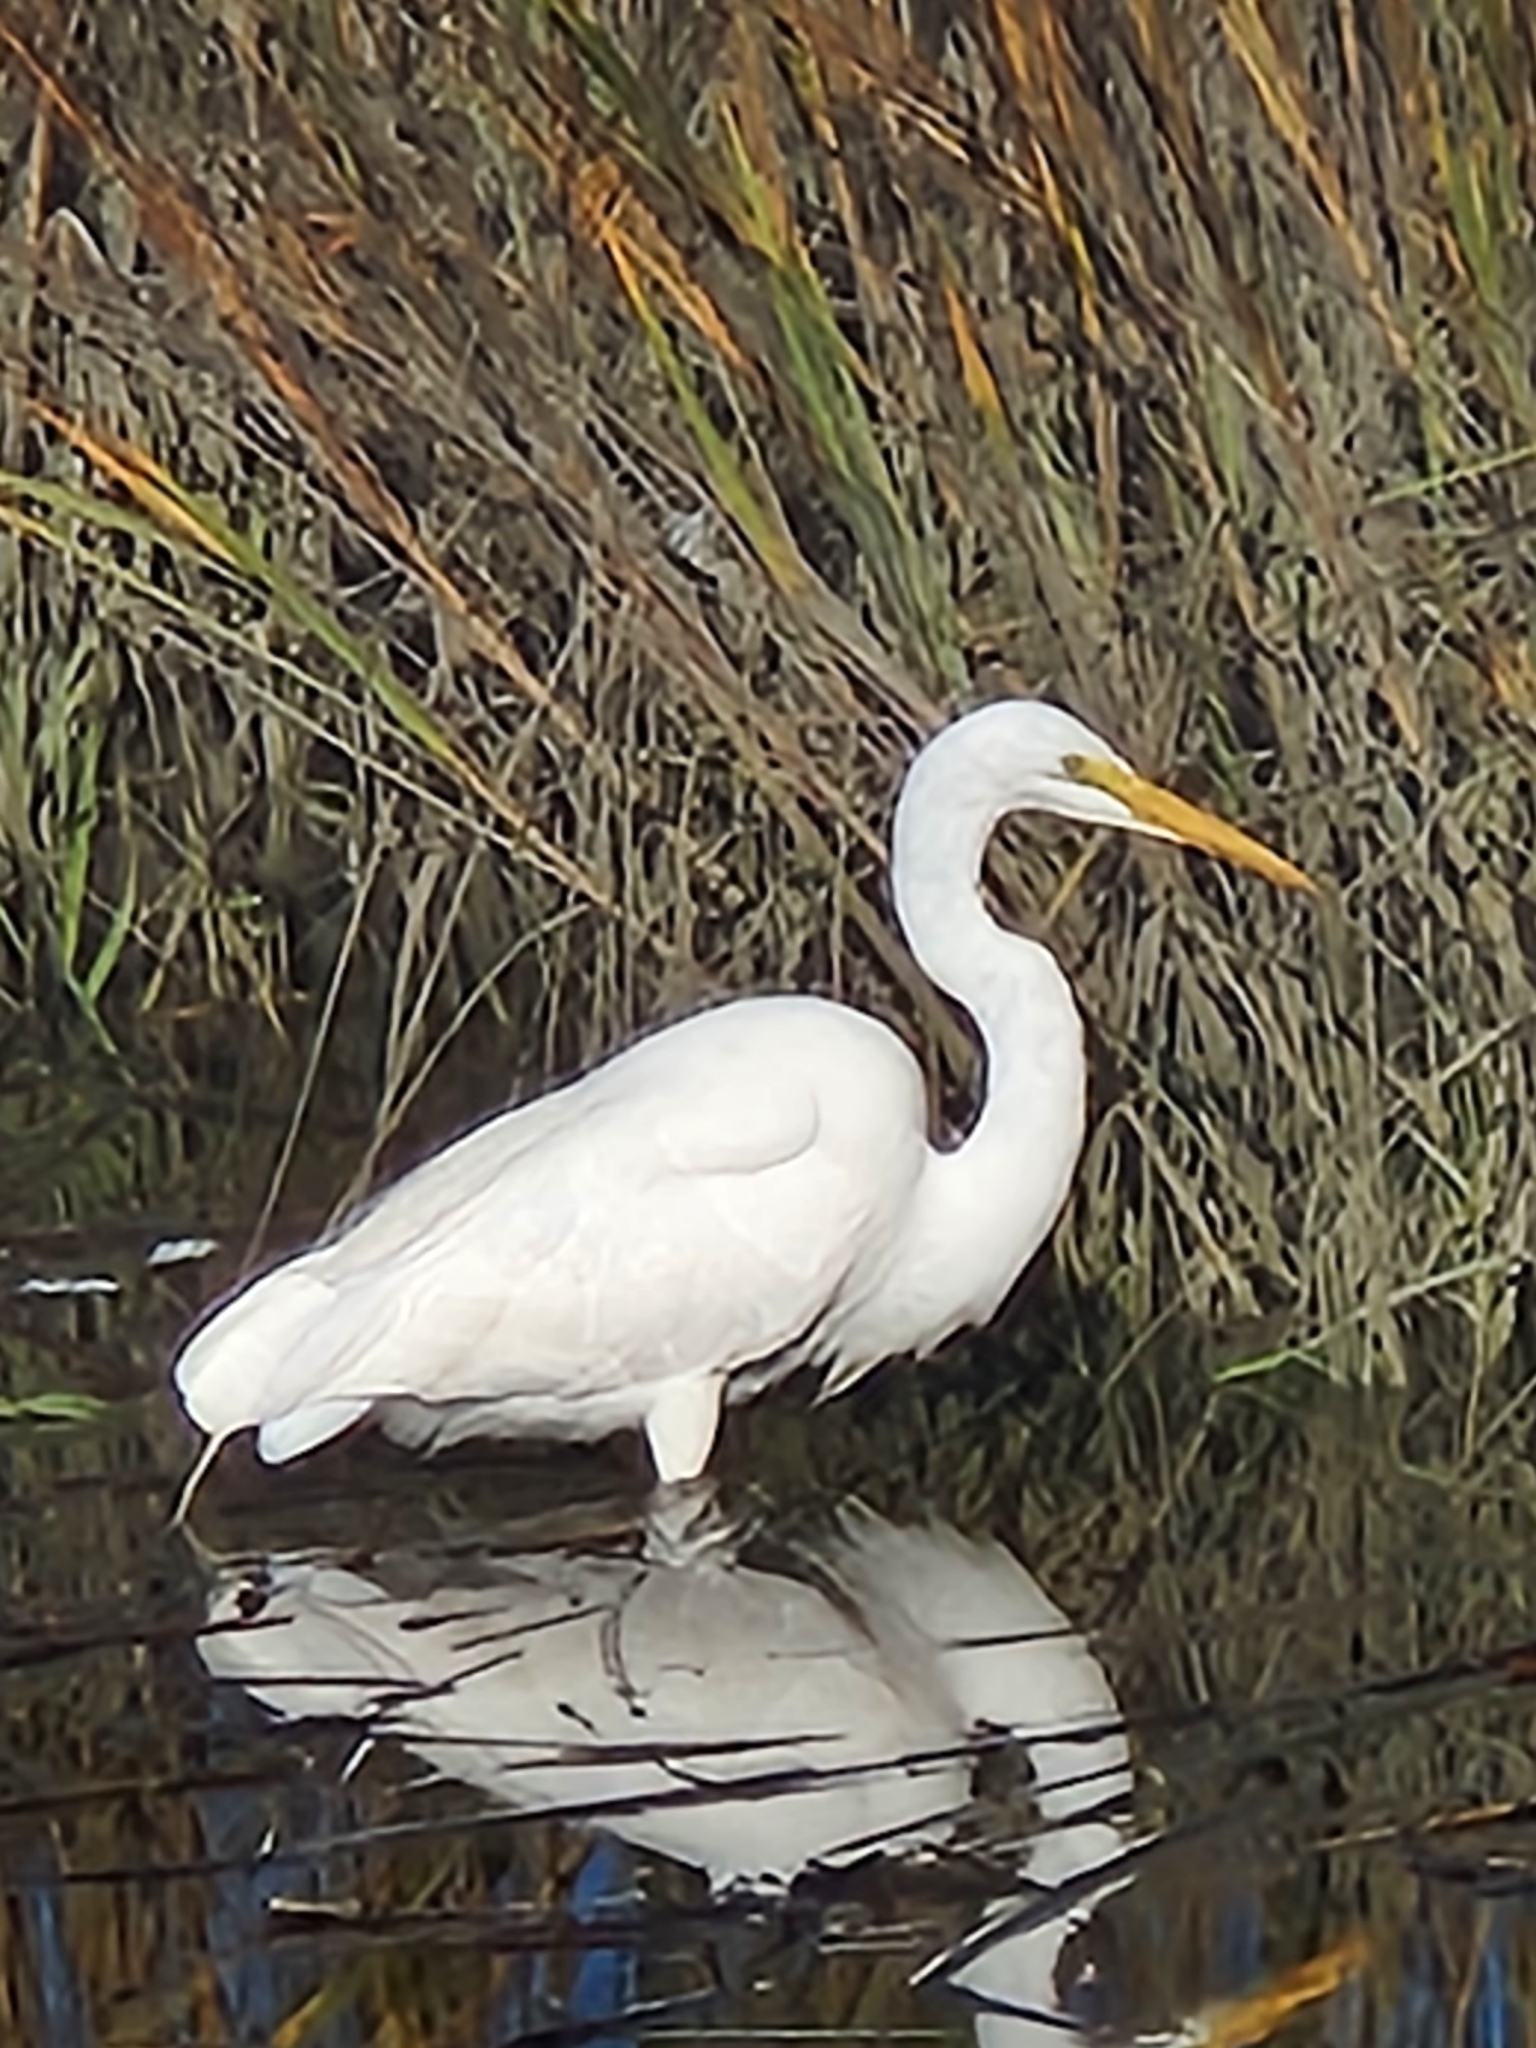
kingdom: Animalia
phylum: Chordata
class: Aves
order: Pelecaniformes
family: Ardeidae
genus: Ardea
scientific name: Ardea alba
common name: Great egret
